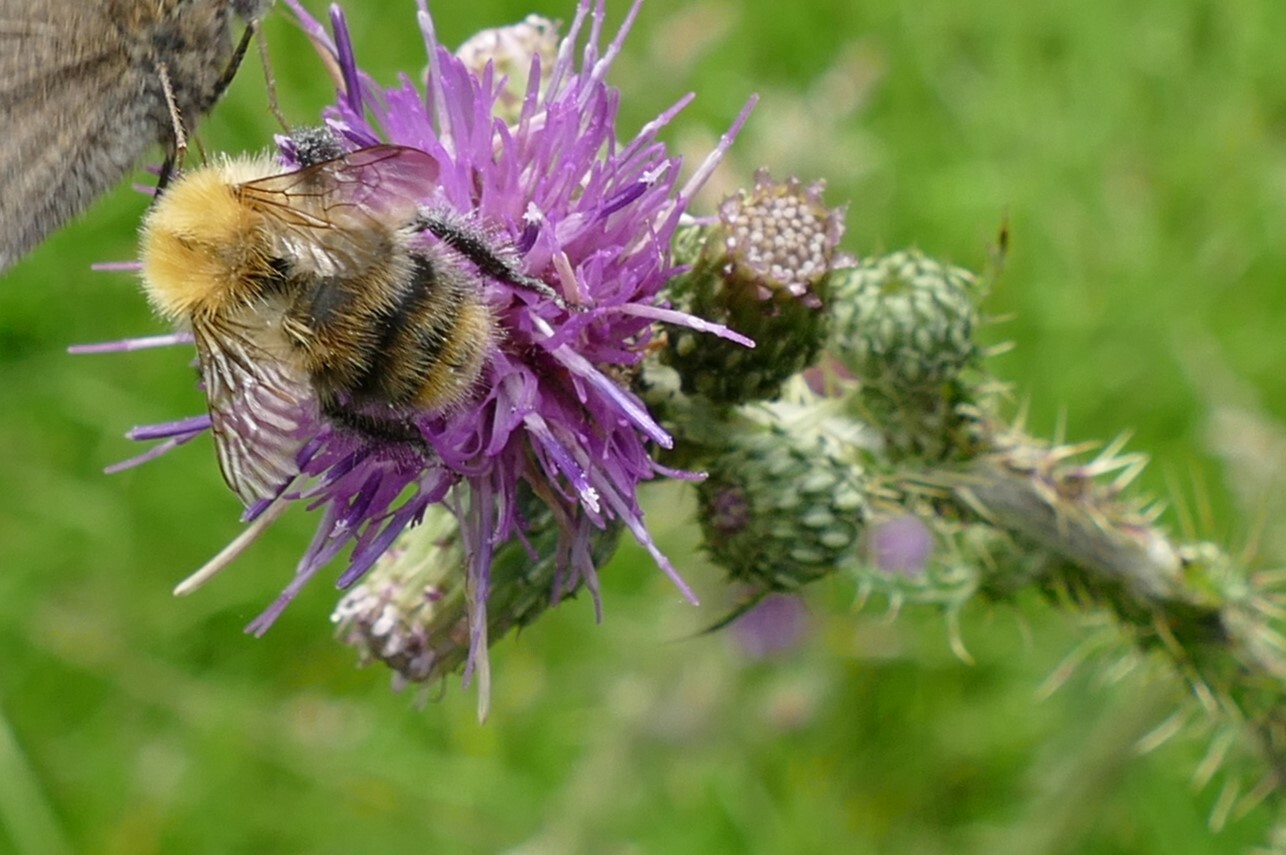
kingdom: Animalia
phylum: Arthropoda
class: Insecta
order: Hymenoptera
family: Apidae
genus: Bombus
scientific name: Bombus pascuorum
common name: Common carder bee
